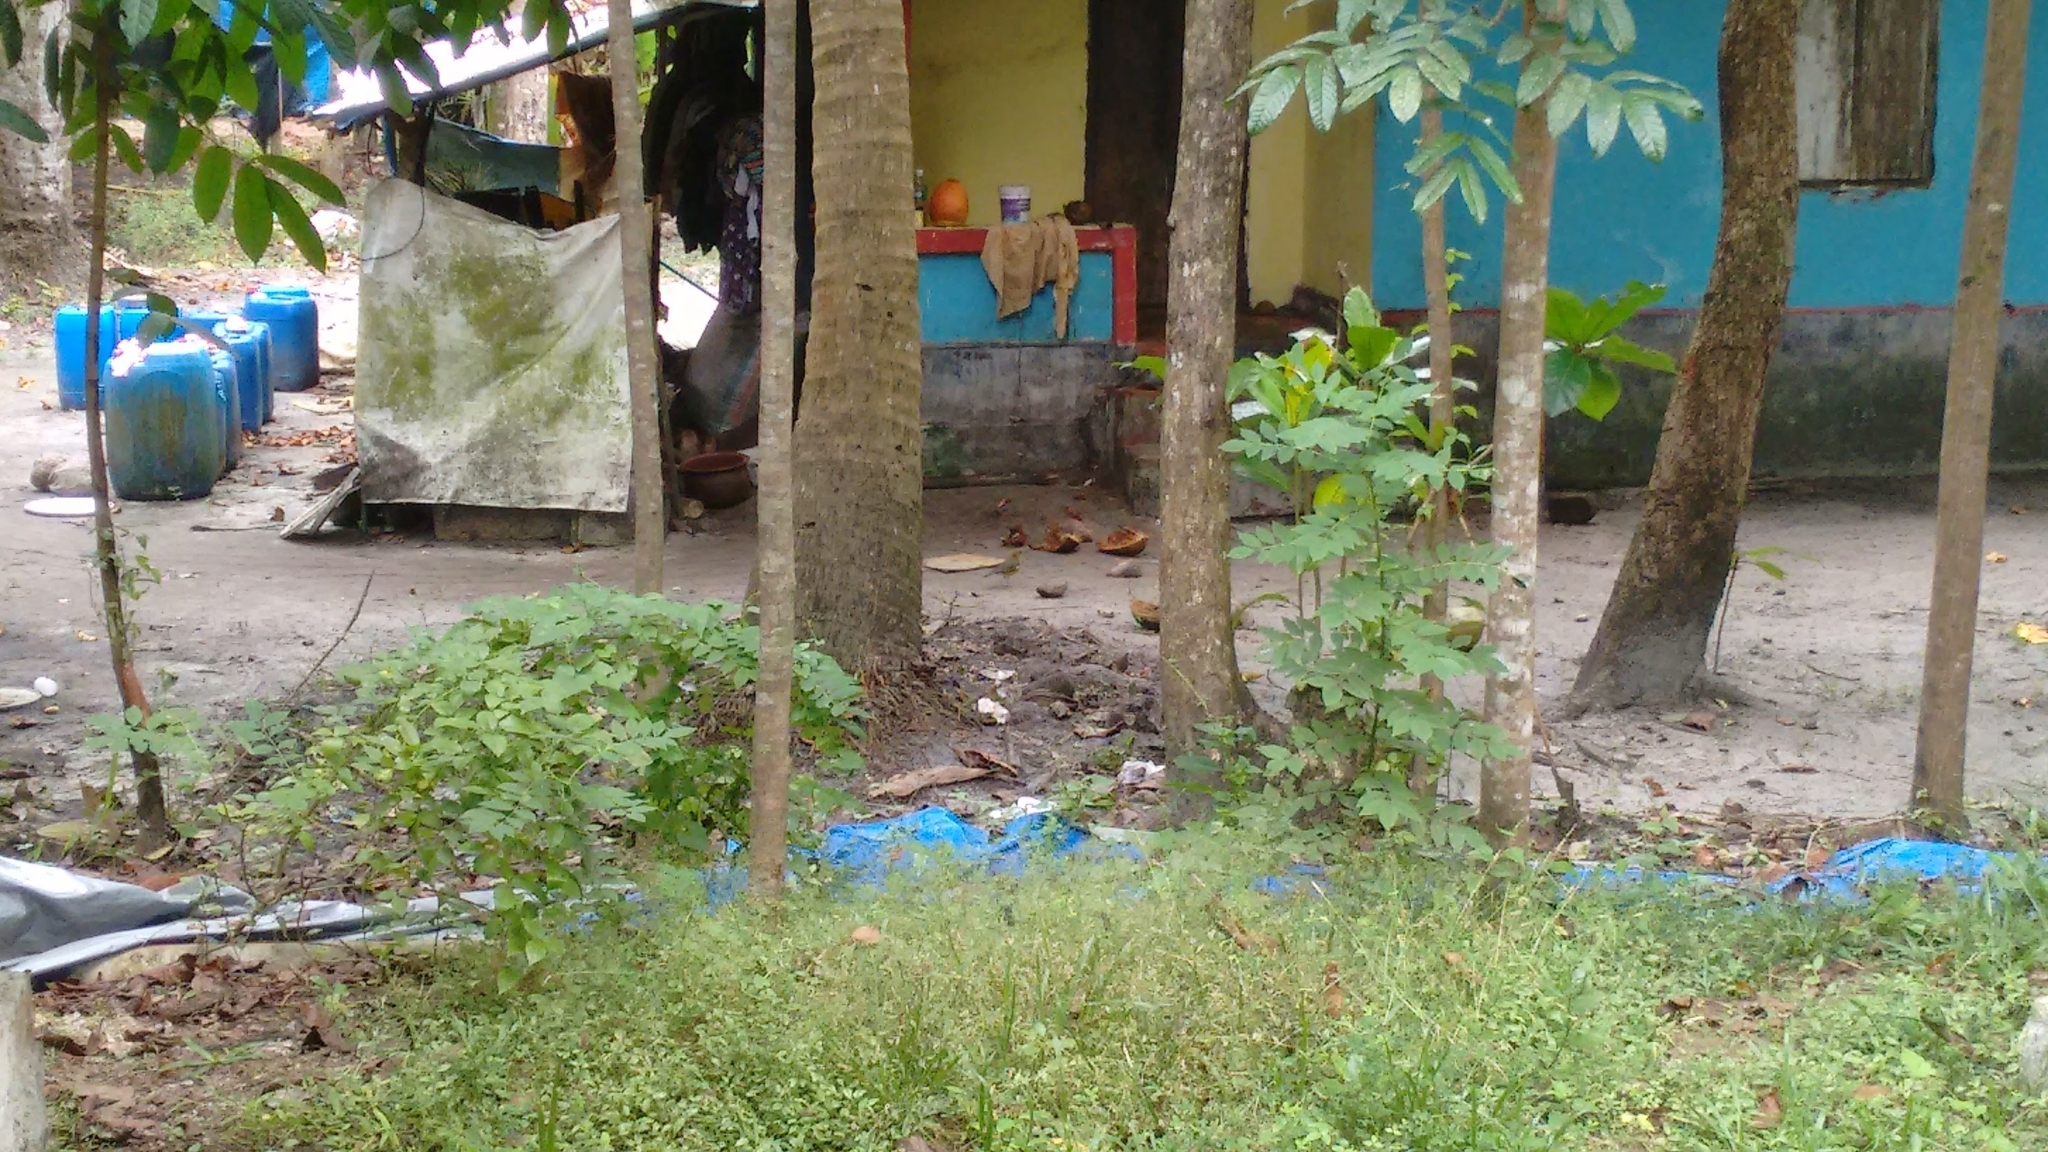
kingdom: Animalia
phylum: Chordata
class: Aves
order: Passeriformes
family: Turdidae
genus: Geokichla
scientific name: Geokichla citrina
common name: Orange-headed thrush
